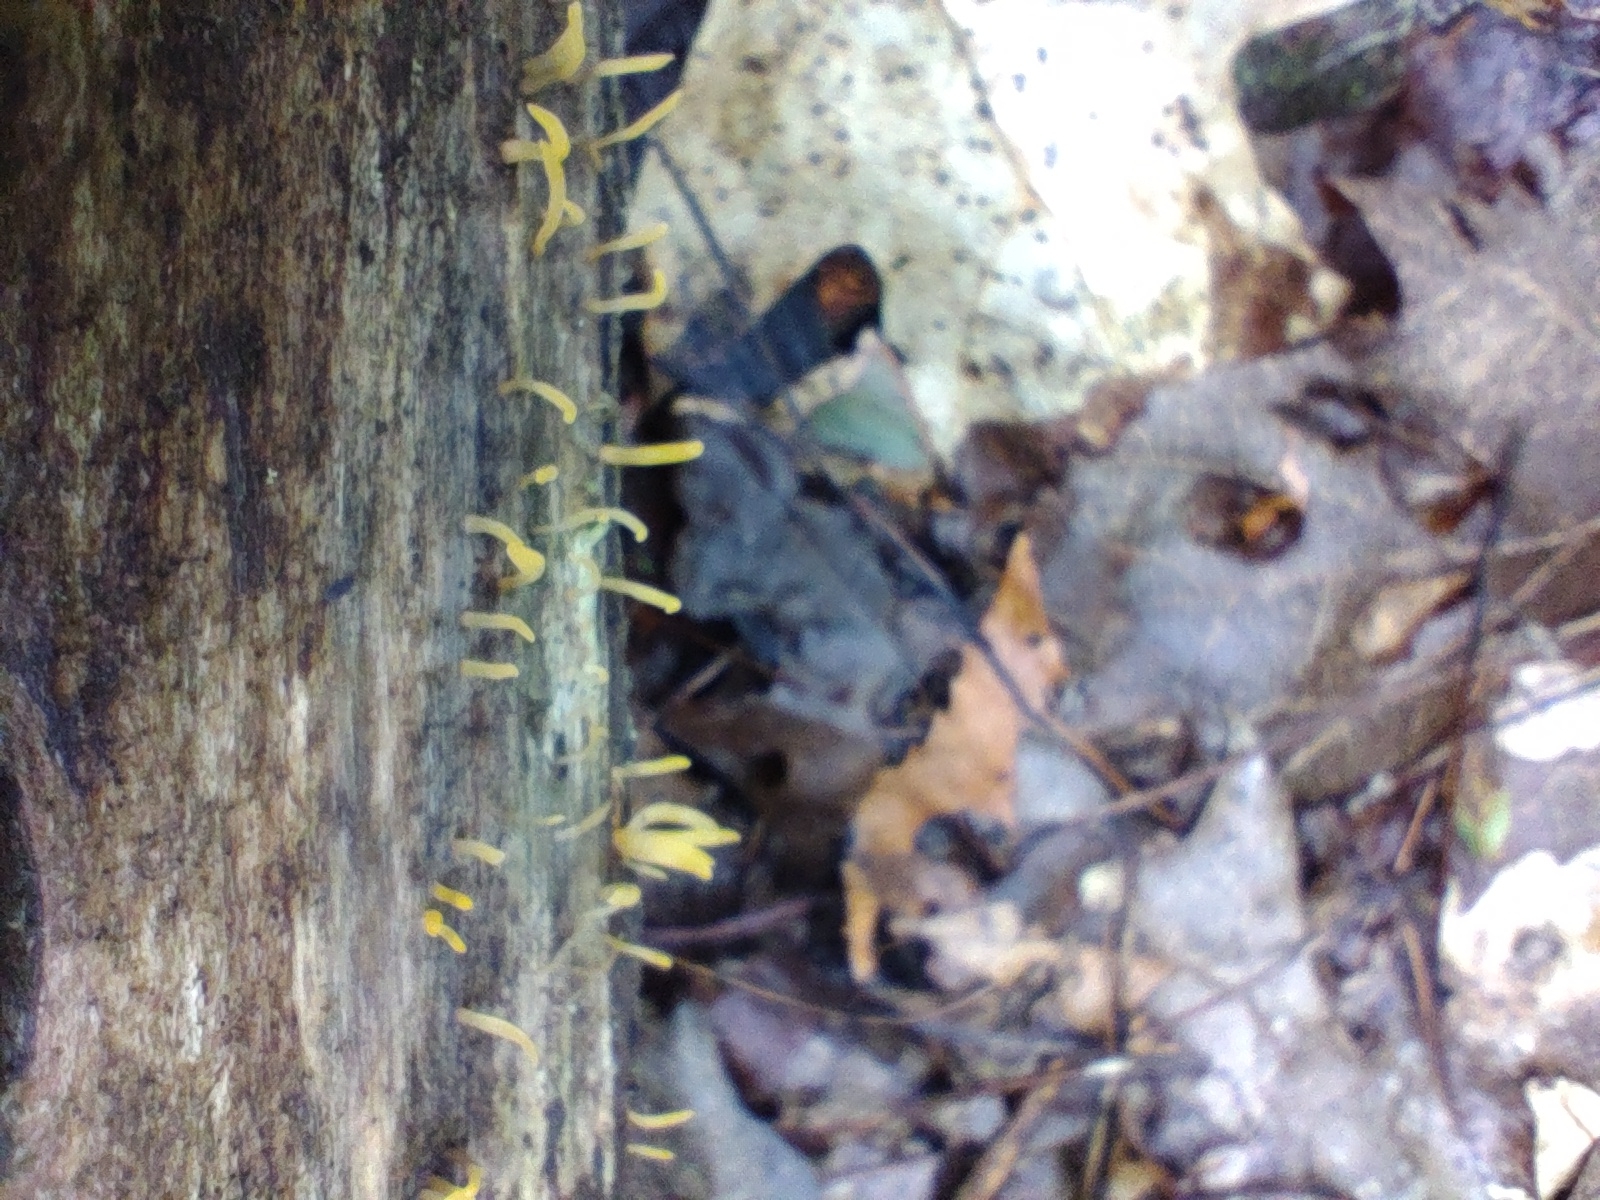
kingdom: Fungi
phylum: Basidiomycota
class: Dacrymycetes
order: Dacrymycetales
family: Dacrymycetaceae
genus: Calocera
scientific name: Calocera cornea
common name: Small stagshorn
